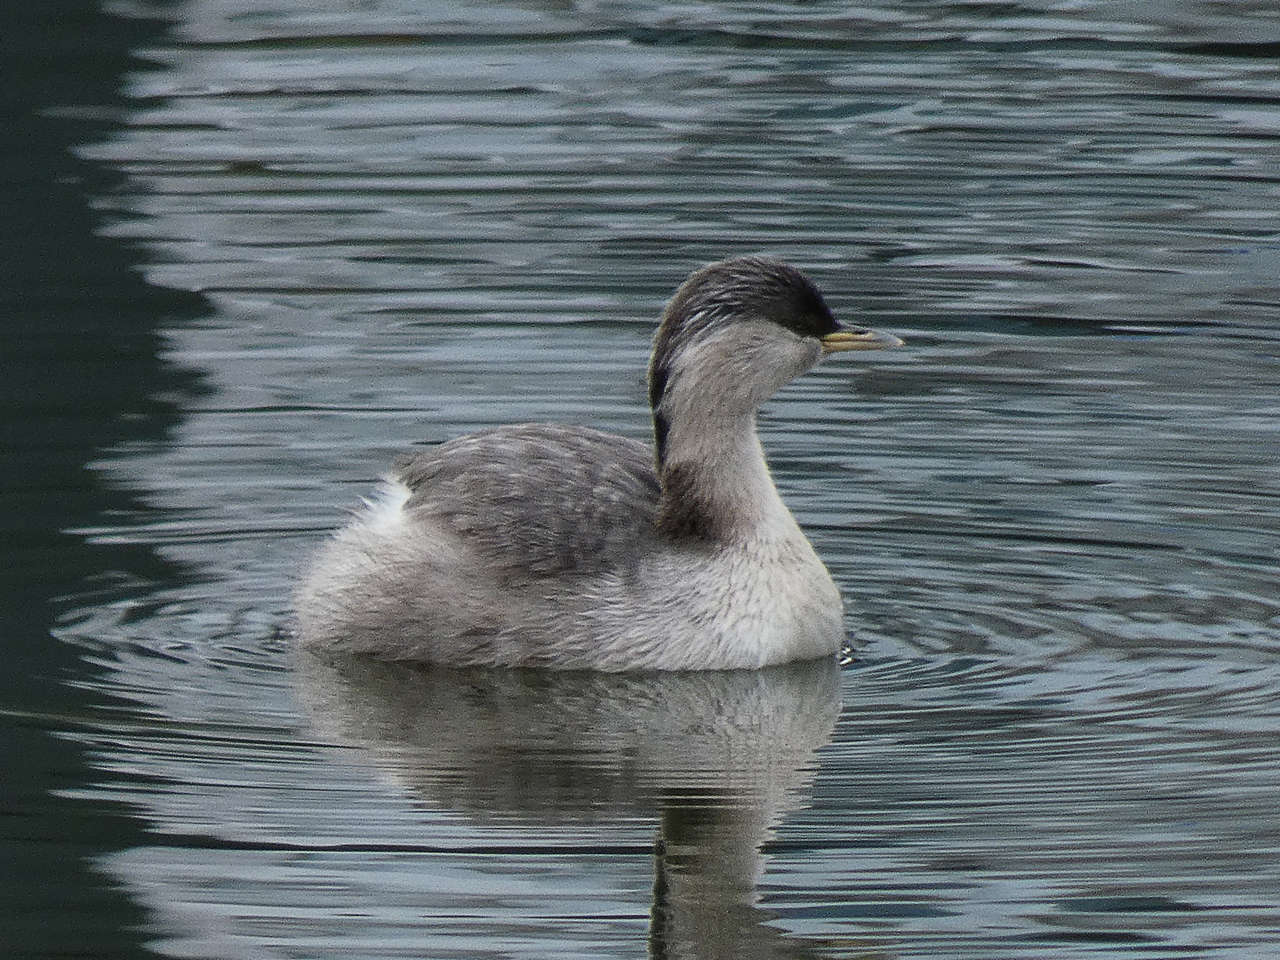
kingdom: Animalia
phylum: Chordata
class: Aves
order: Podicipediformes
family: Podicipedidae
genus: Poliocephalus
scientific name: Poliocephalus poliocephalus
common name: Hoary-headed grebe
